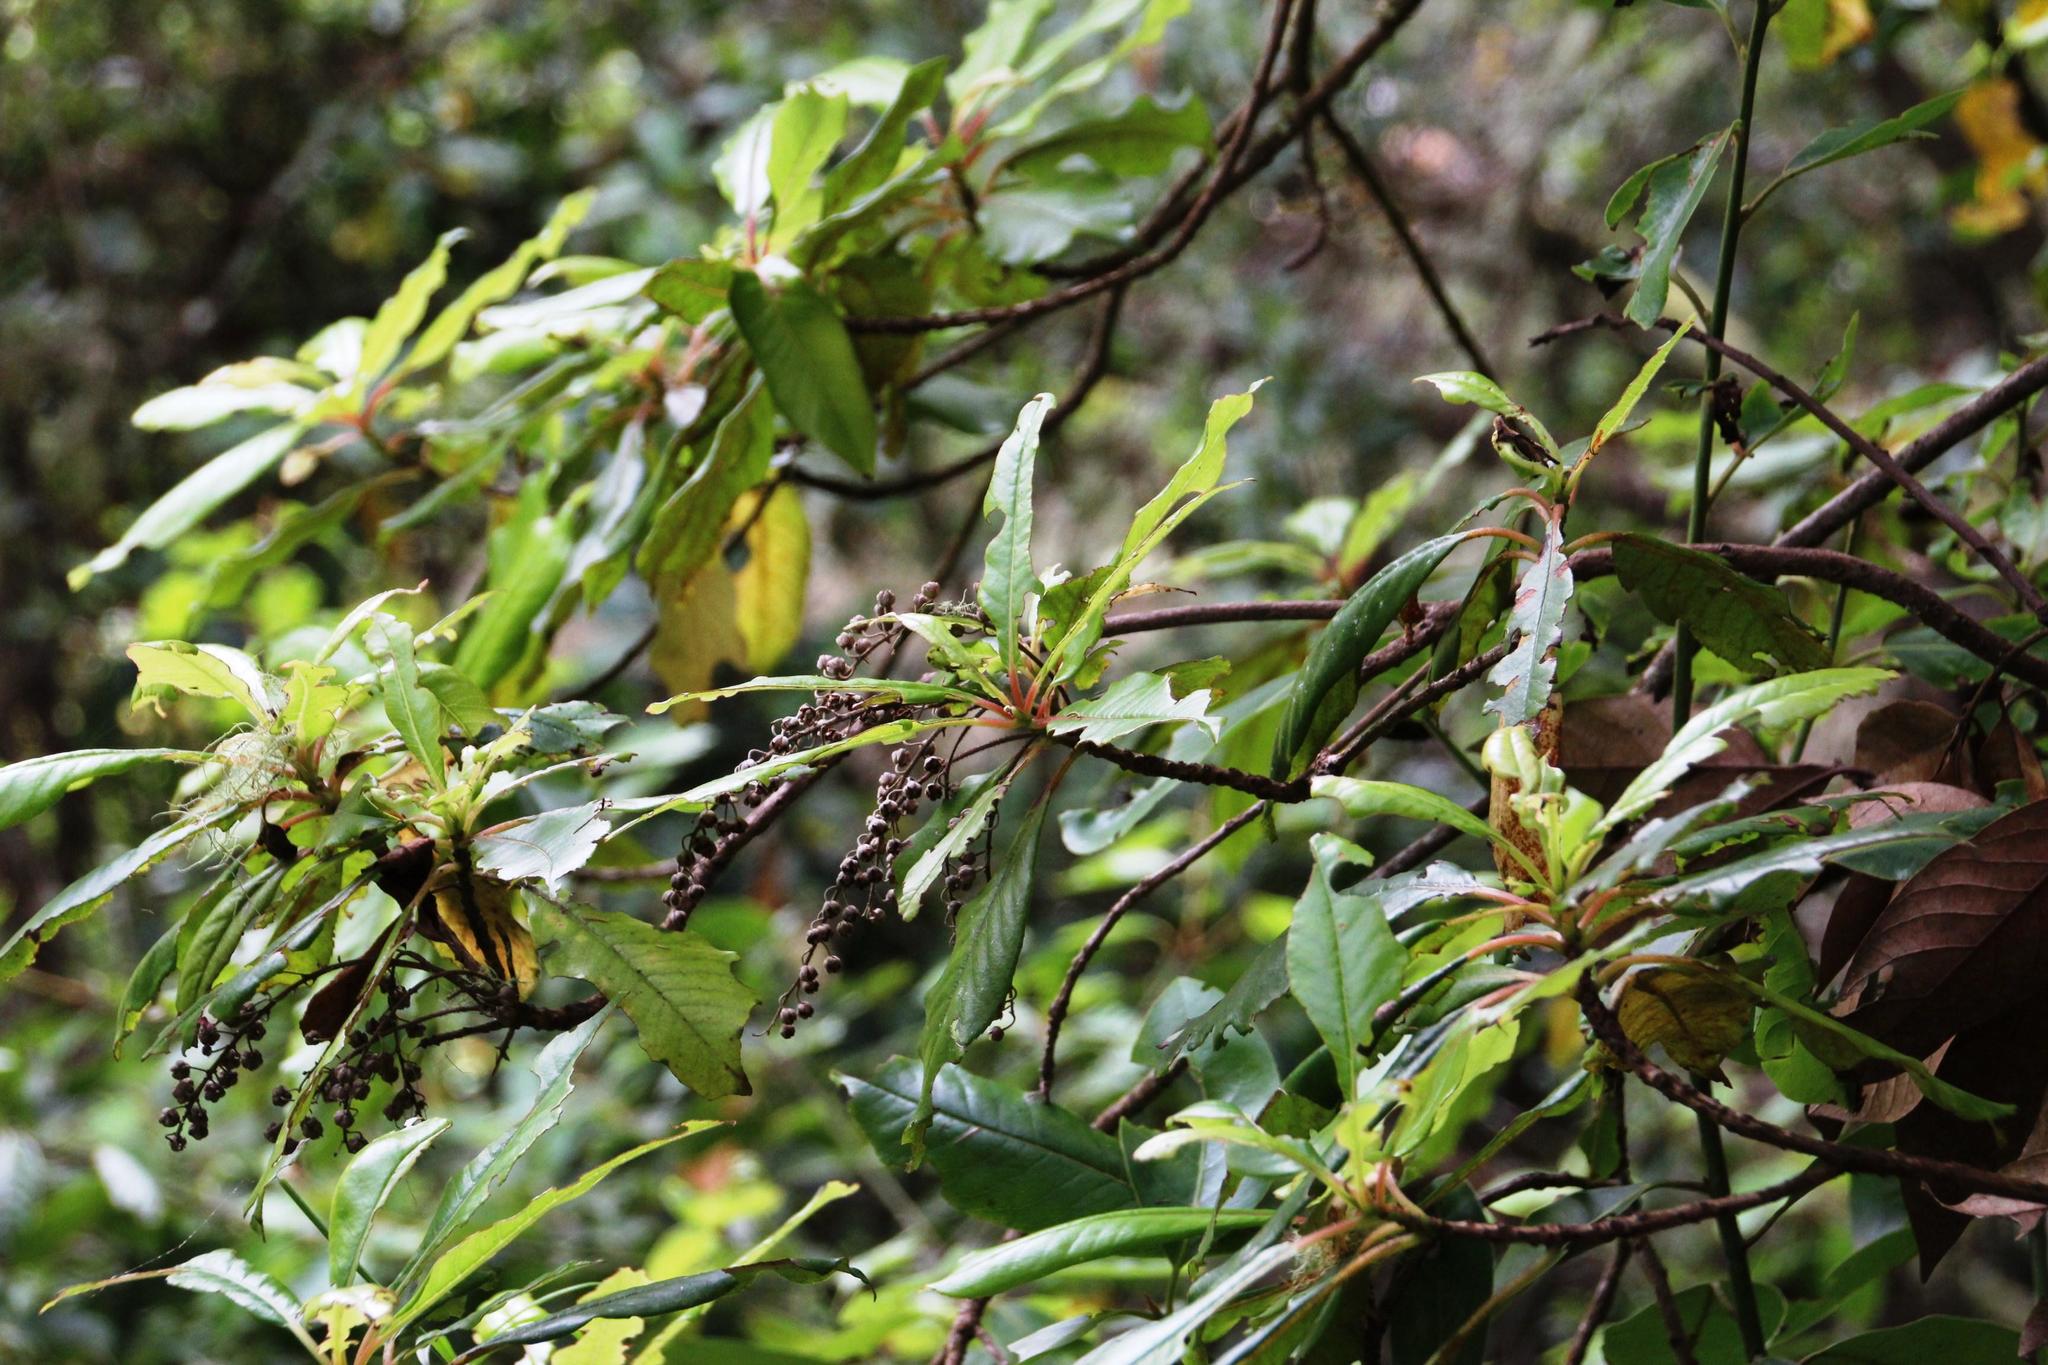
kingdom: Plantae
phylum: Tracheophyta
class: Magnoliopsida
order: Ericales
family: Clethraceae
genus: Clethra
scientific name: Clethra arborea
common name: Lily-of-the-valley-tree
